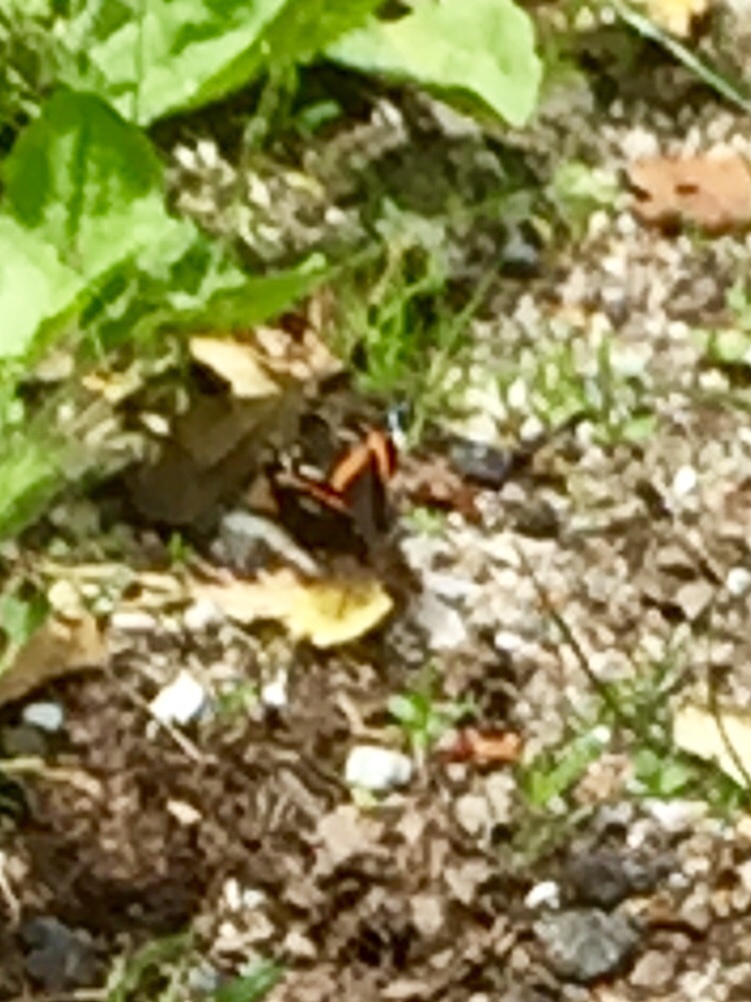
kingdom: Animalia
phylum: Arthropoda
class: Insecta
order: Lepidoptera
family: Nymphalidae
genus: Vanessa
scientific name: Vanessa atalanta
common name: Red admiral
